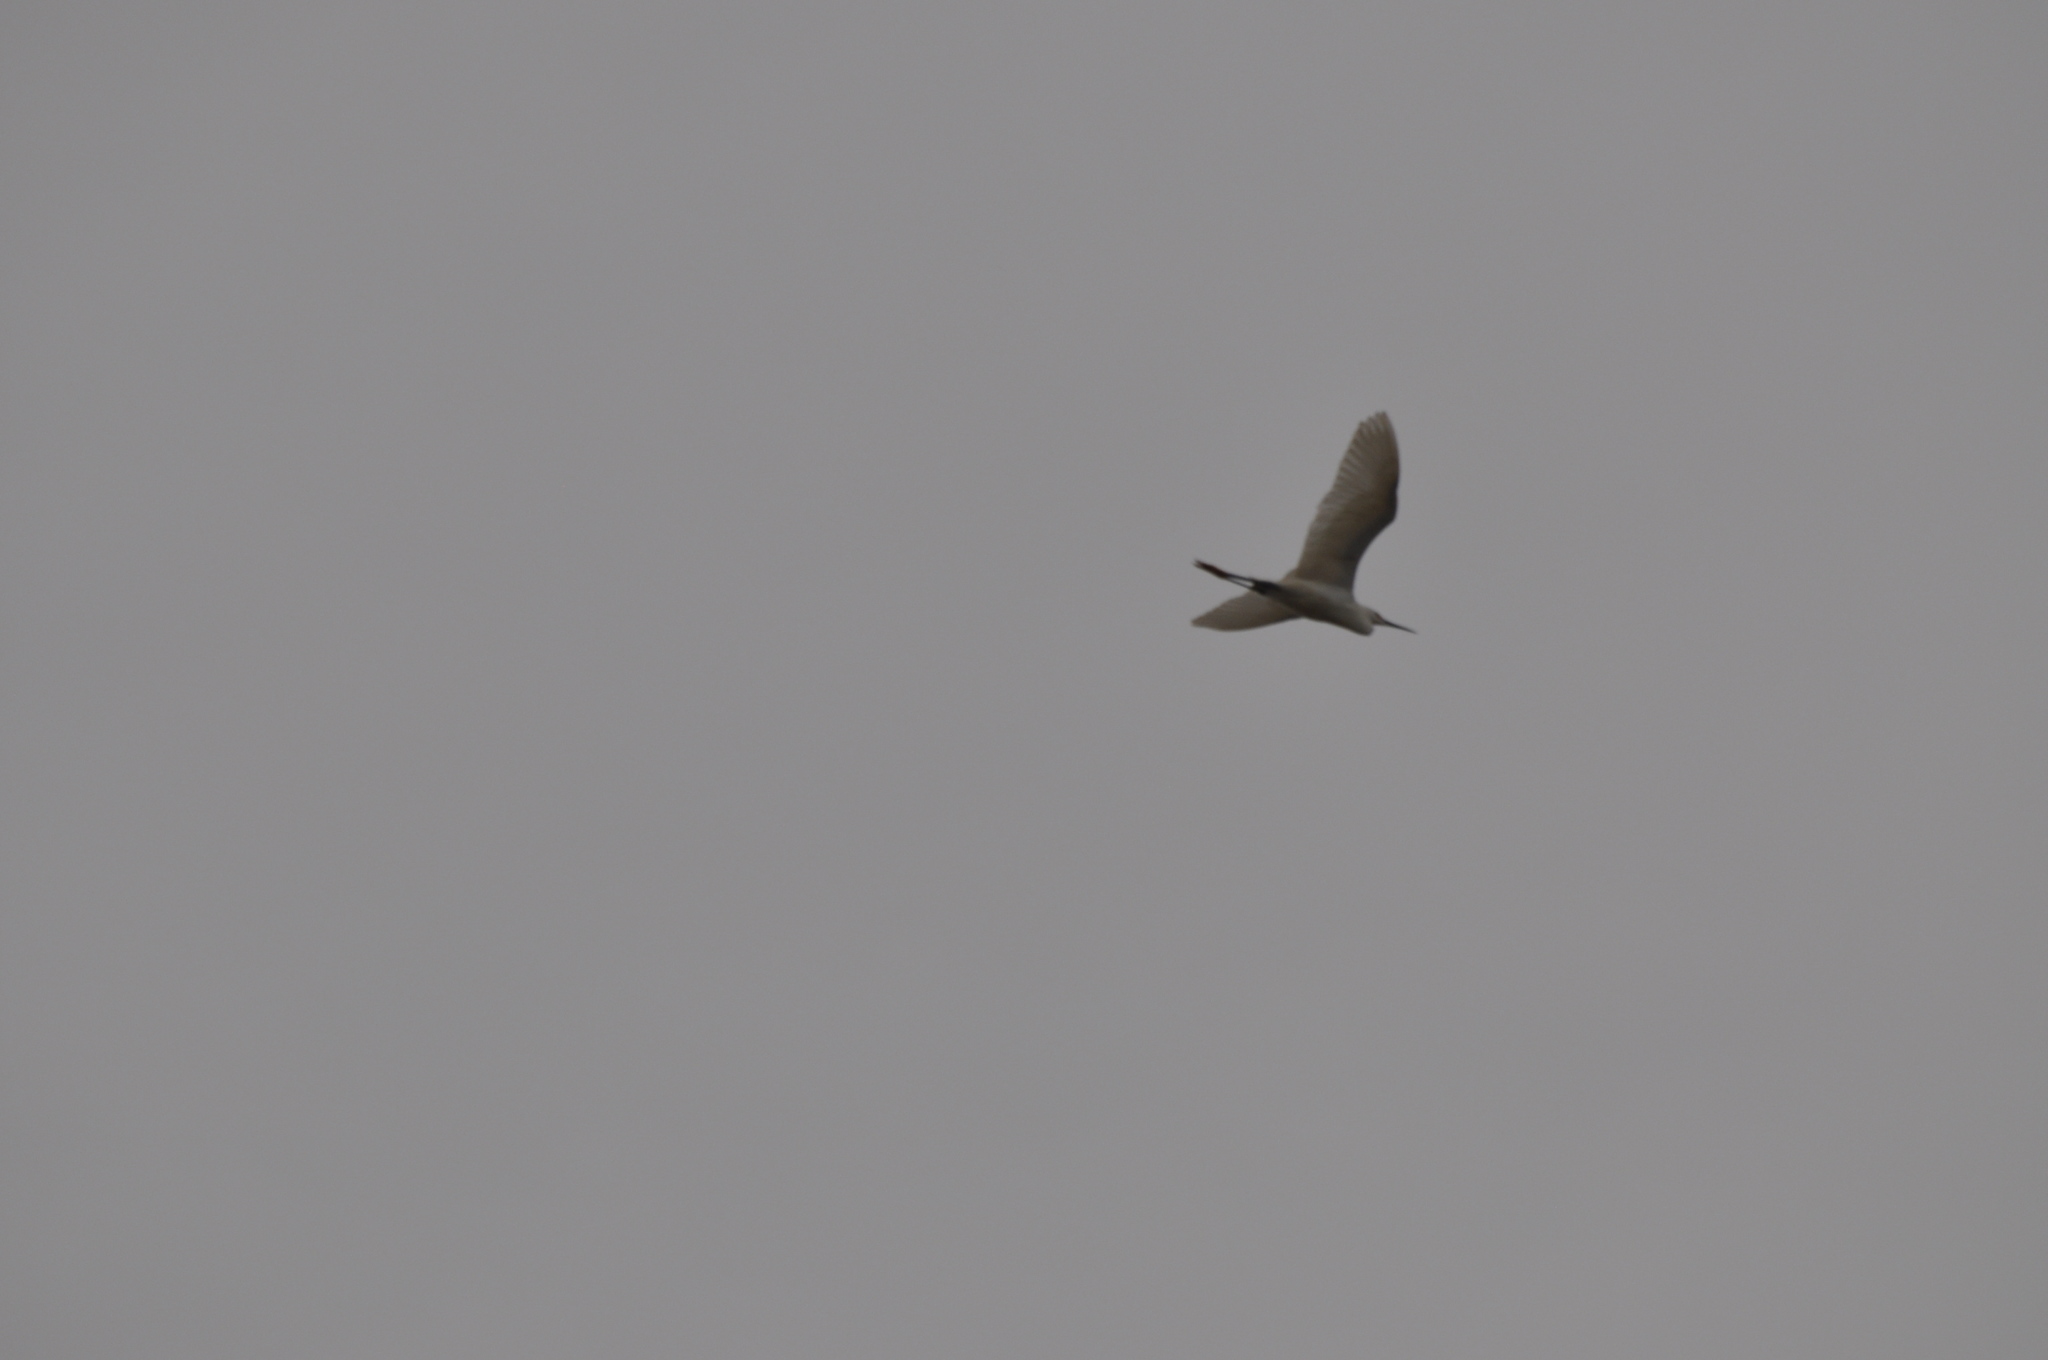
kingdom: Animalia
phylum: Chordata
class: Aves
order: Pelecaniformes
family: Ardeidae
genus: Egretta
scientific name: Egretta thula
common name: Snowy egret
